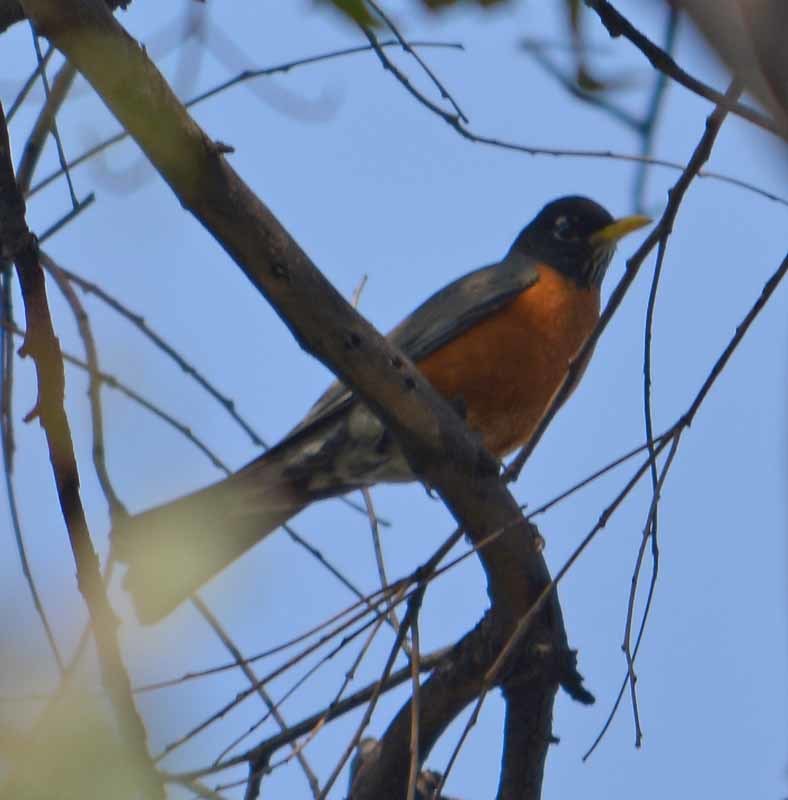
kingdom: Animalia
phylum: Chordata
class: Aves
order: Passeriformes
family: Turdidae
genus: Turdus
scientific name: Turdus migratorius
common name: American robin
